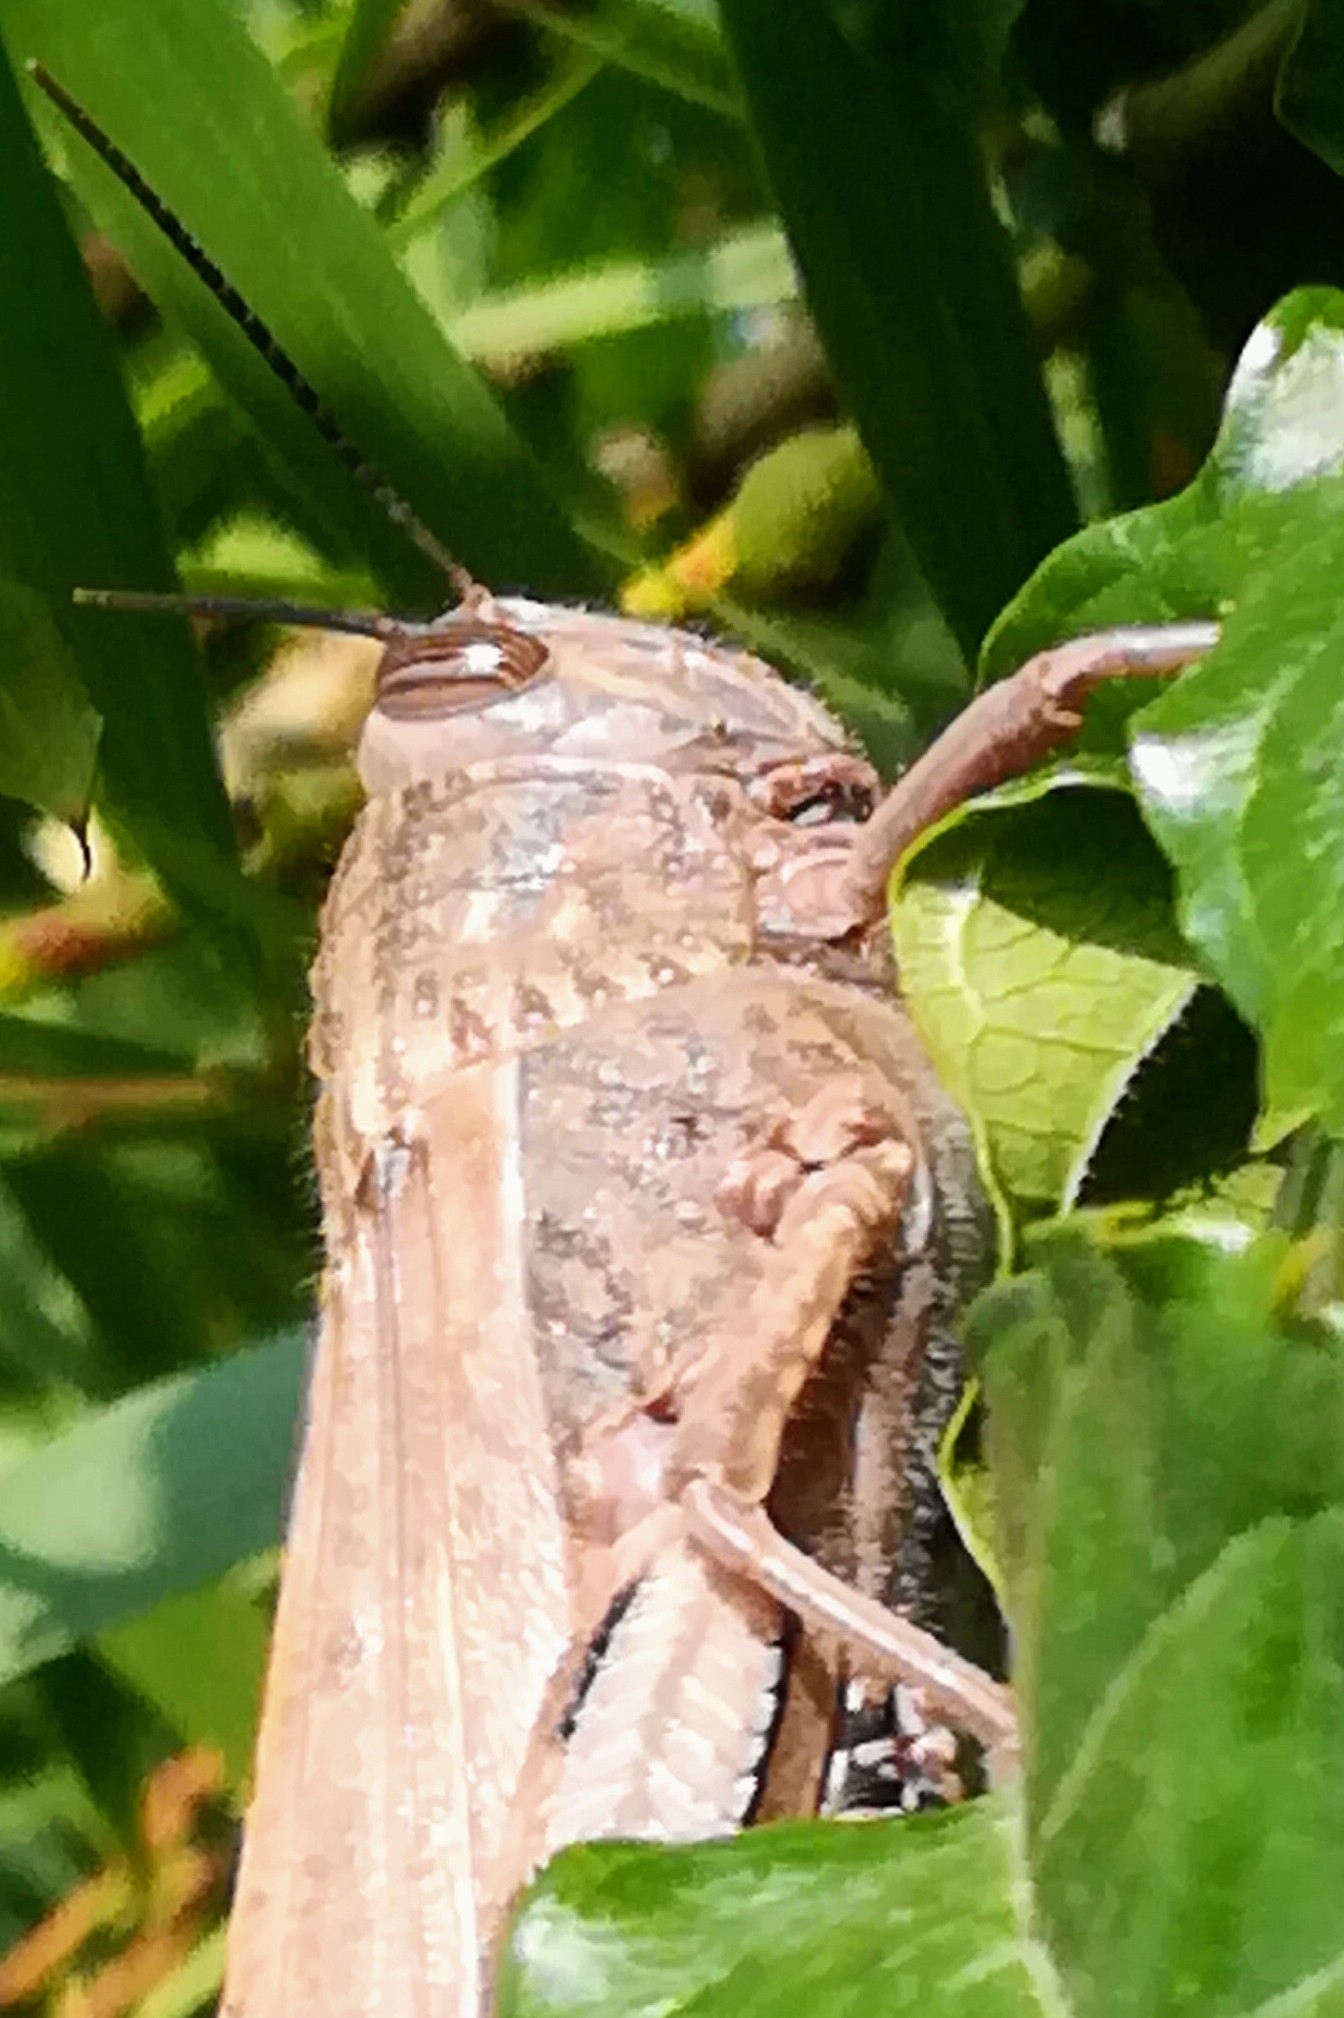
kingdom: Animalia
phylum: Arthropoda
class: Insecta
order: Orthoptera
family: Acrididae
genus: Anacridium
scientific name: Anacridium aegyptium
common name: Egyptian grasshopper
